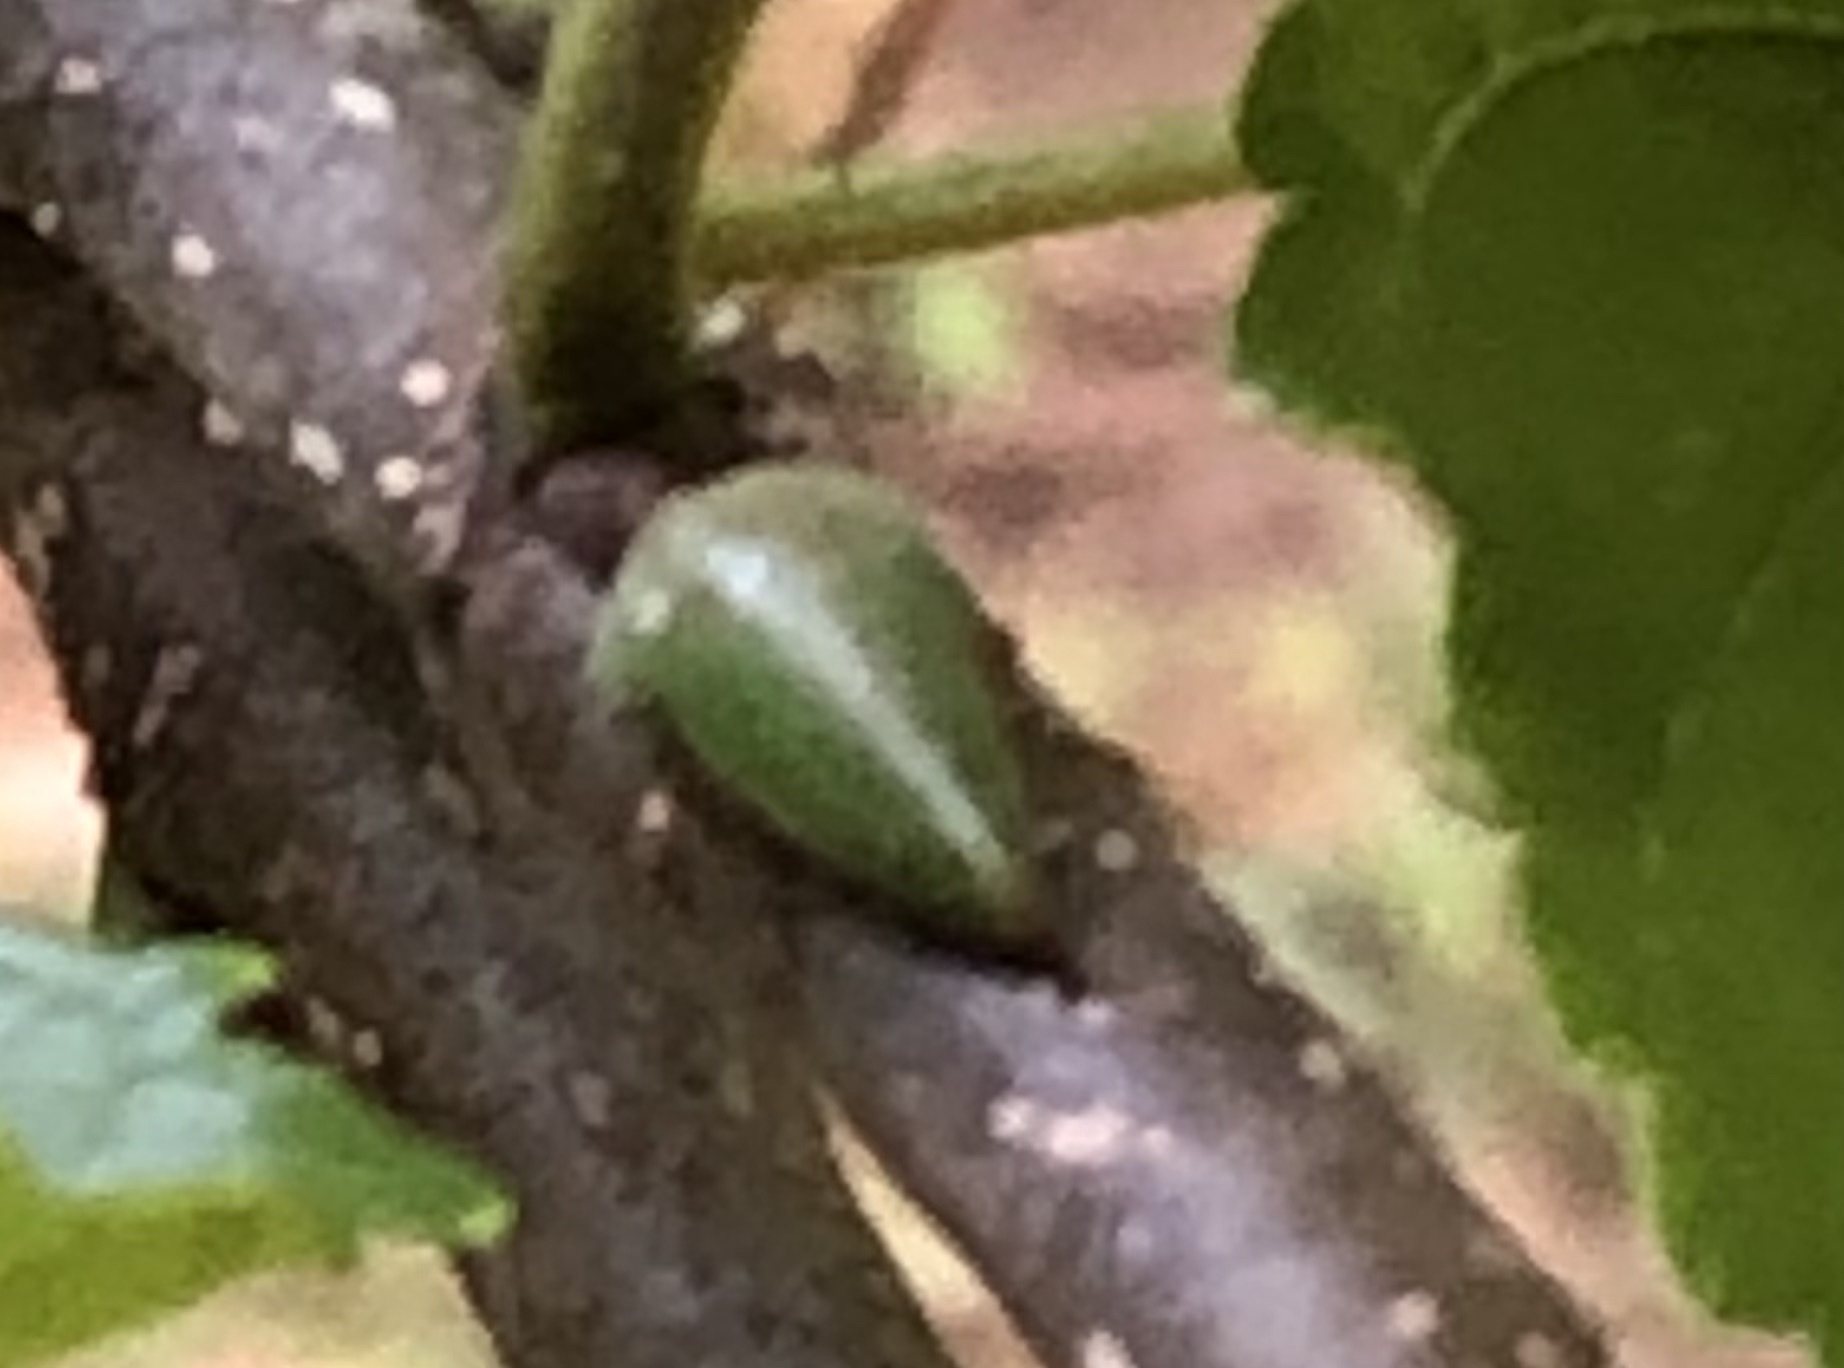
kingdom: Animalia
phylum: Arthropoda
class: Insecta
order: Hemiptera
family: Membracidae
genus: Hebetica
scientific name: Hebetica
